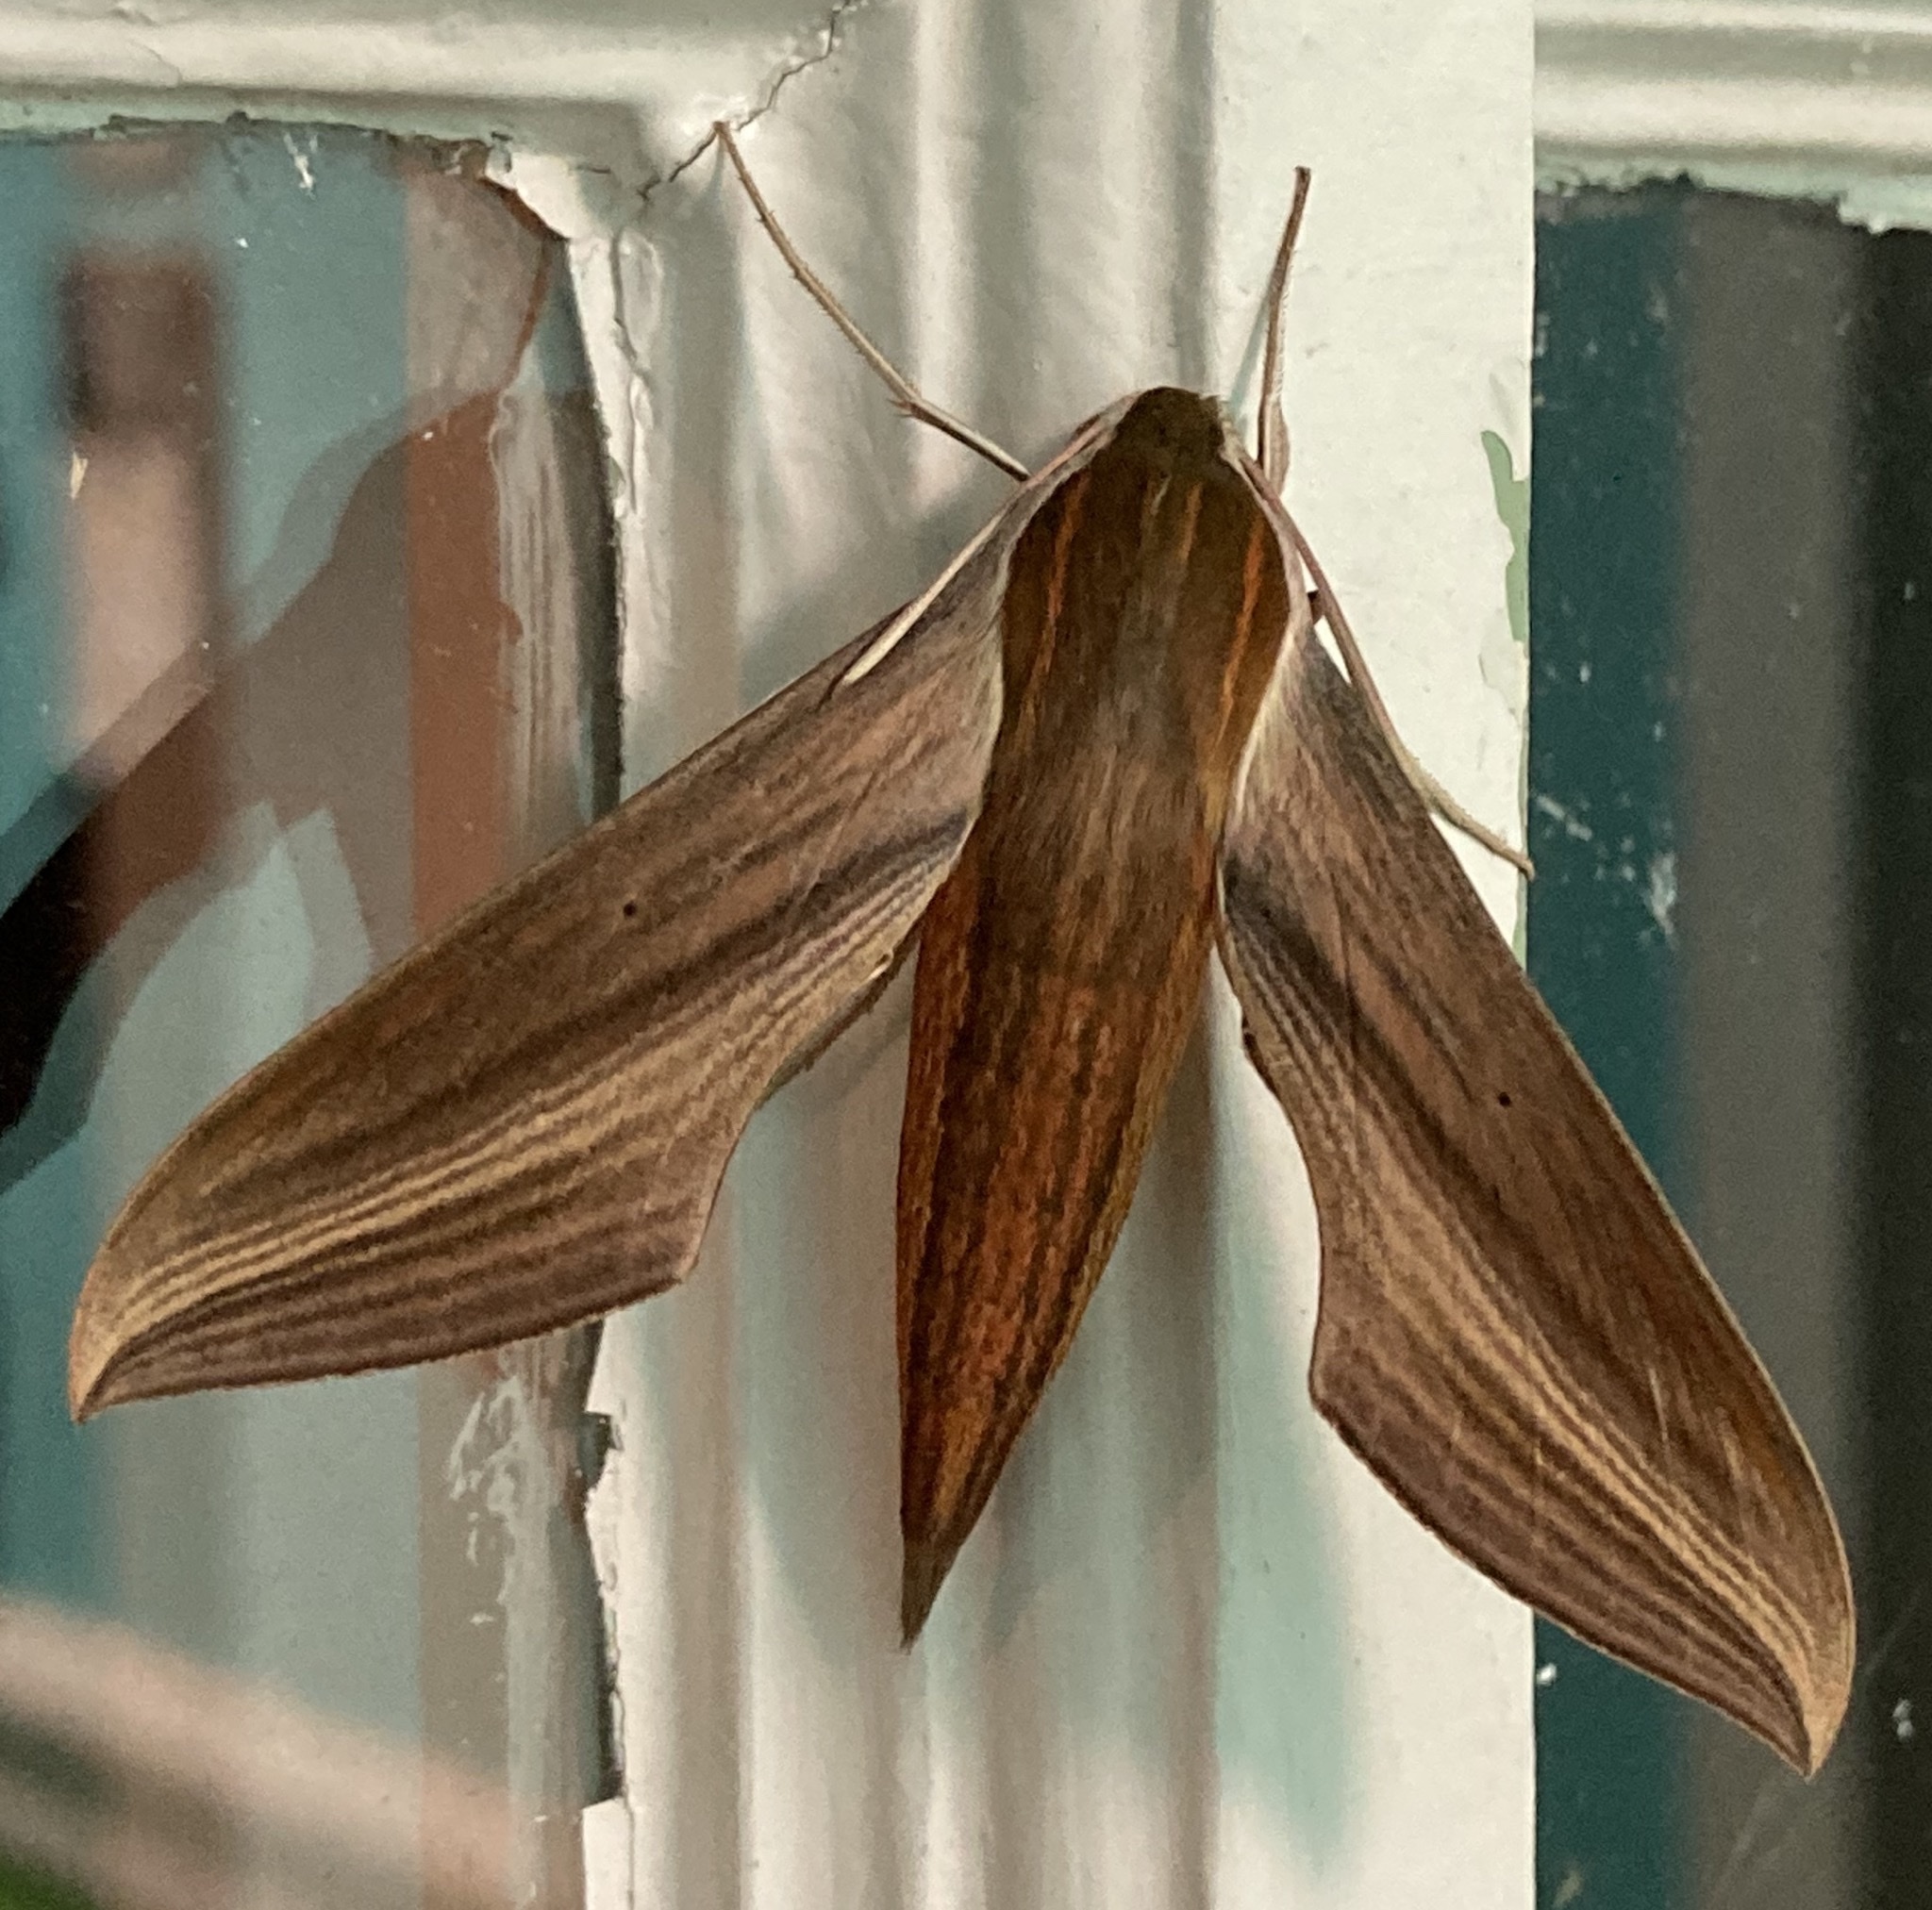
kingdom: Animalia
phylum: Arthropoda
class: Insecta
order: Lepidoptera
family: Sphingidae
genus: Xylophanes
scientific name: Xylophanes tersa
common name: Tersa sphinx
